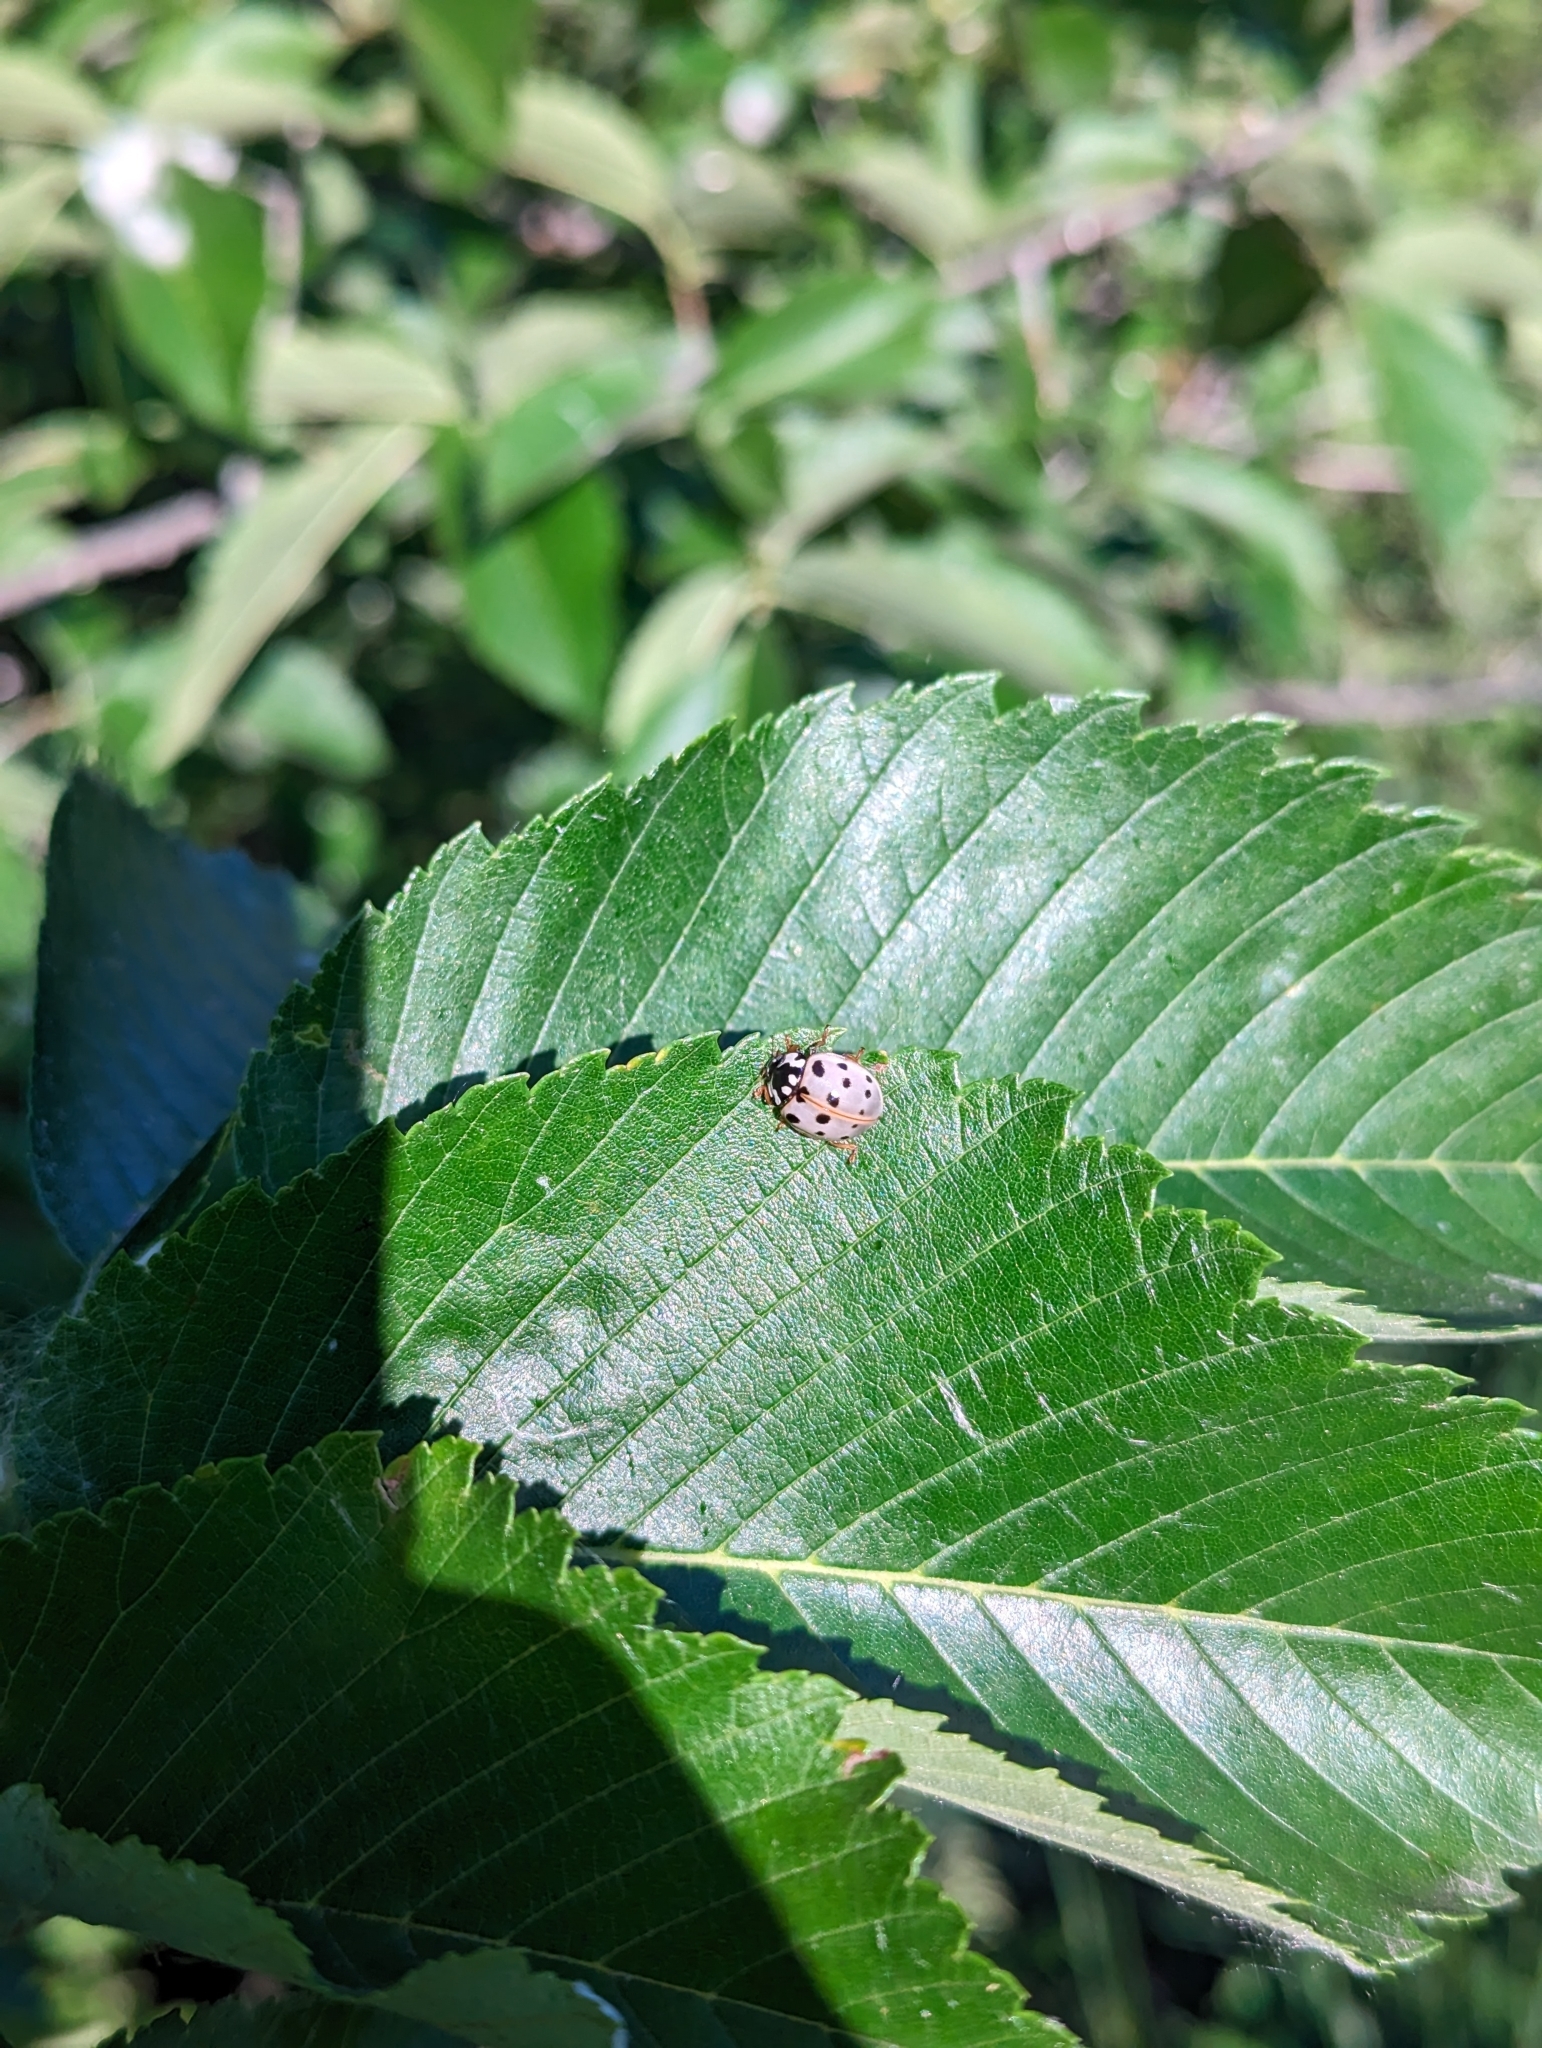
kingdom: Animalia
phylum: Arthropoda
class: Insecta
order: Coleoptera
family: Coccinellidae
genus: Anatis
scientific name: Anatis labiculata
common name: Fifteen-spotted lady beetle
